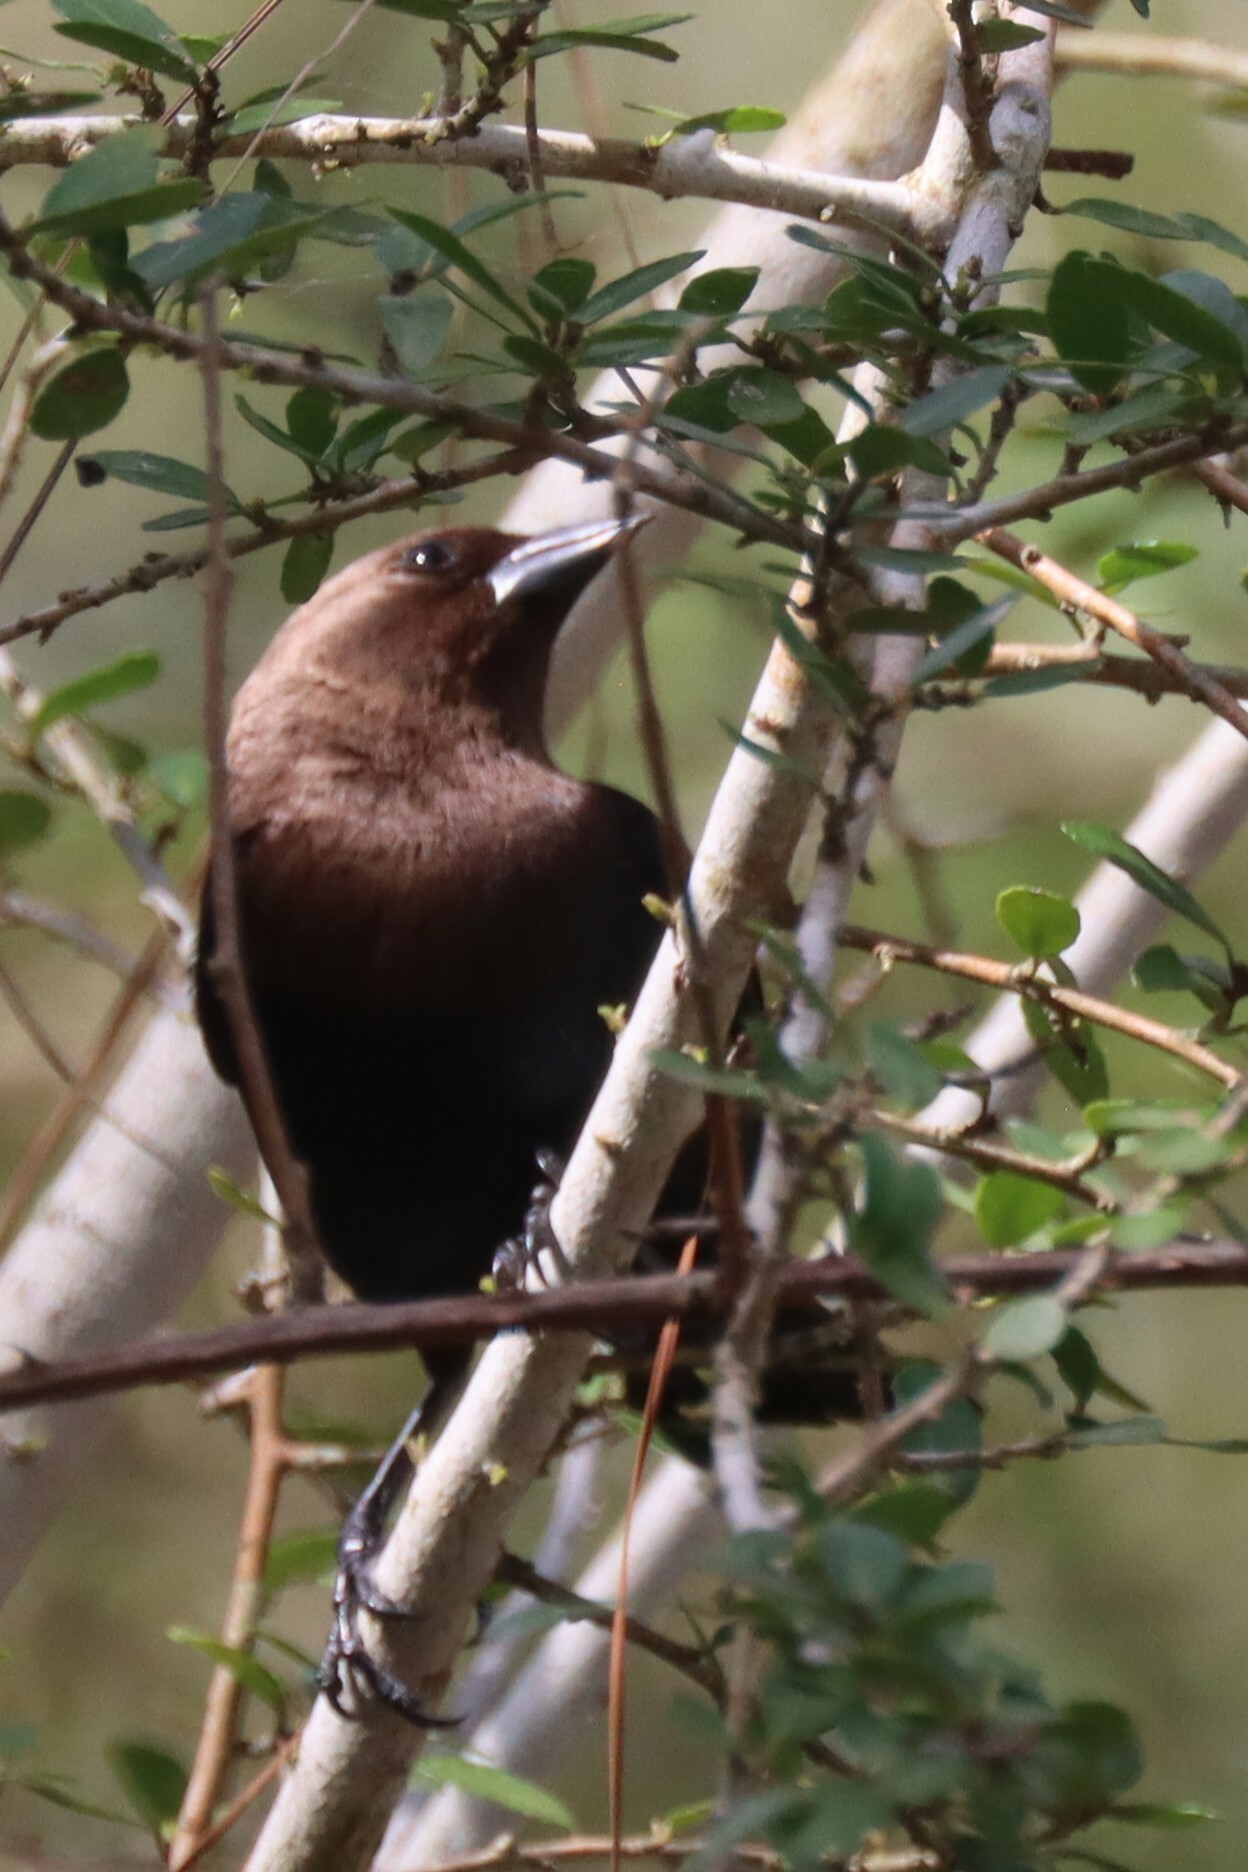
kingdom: Animalia
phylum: Chordata
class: Aves
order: Passeriformes
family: Icteridae
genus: Molothrus
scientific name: Molothrus ater
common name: Brown-headed cowbird
